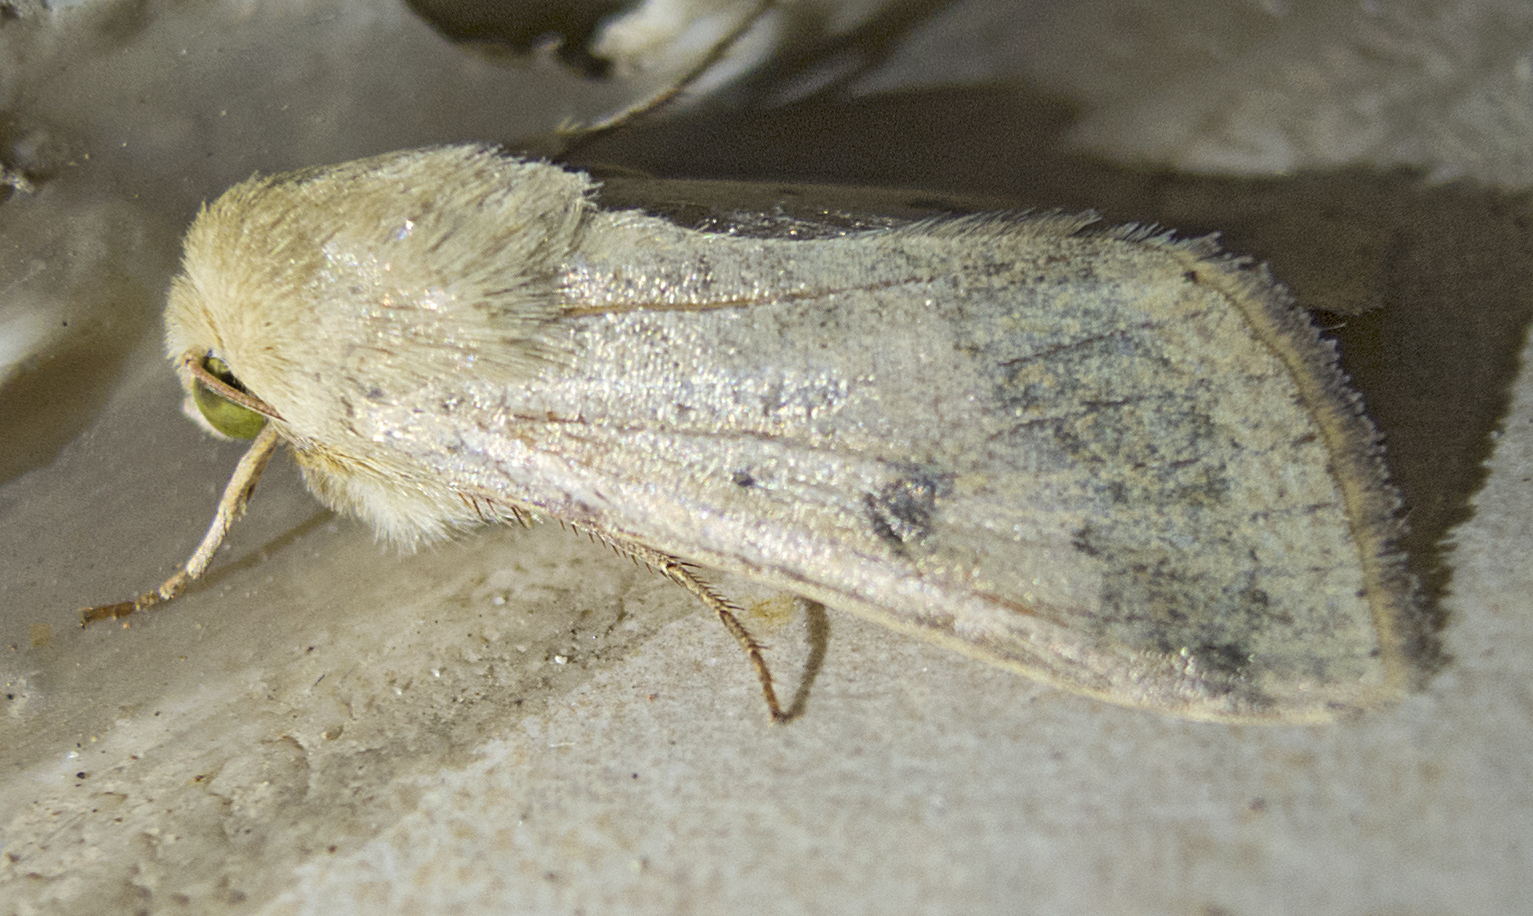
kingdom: Animalia
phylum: Arthropoda
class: Insecta
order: Lepidoptera
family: Noctuidae
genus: Helicoverpa
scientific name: Helicoverpa armigera
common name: Cotton bollworm
